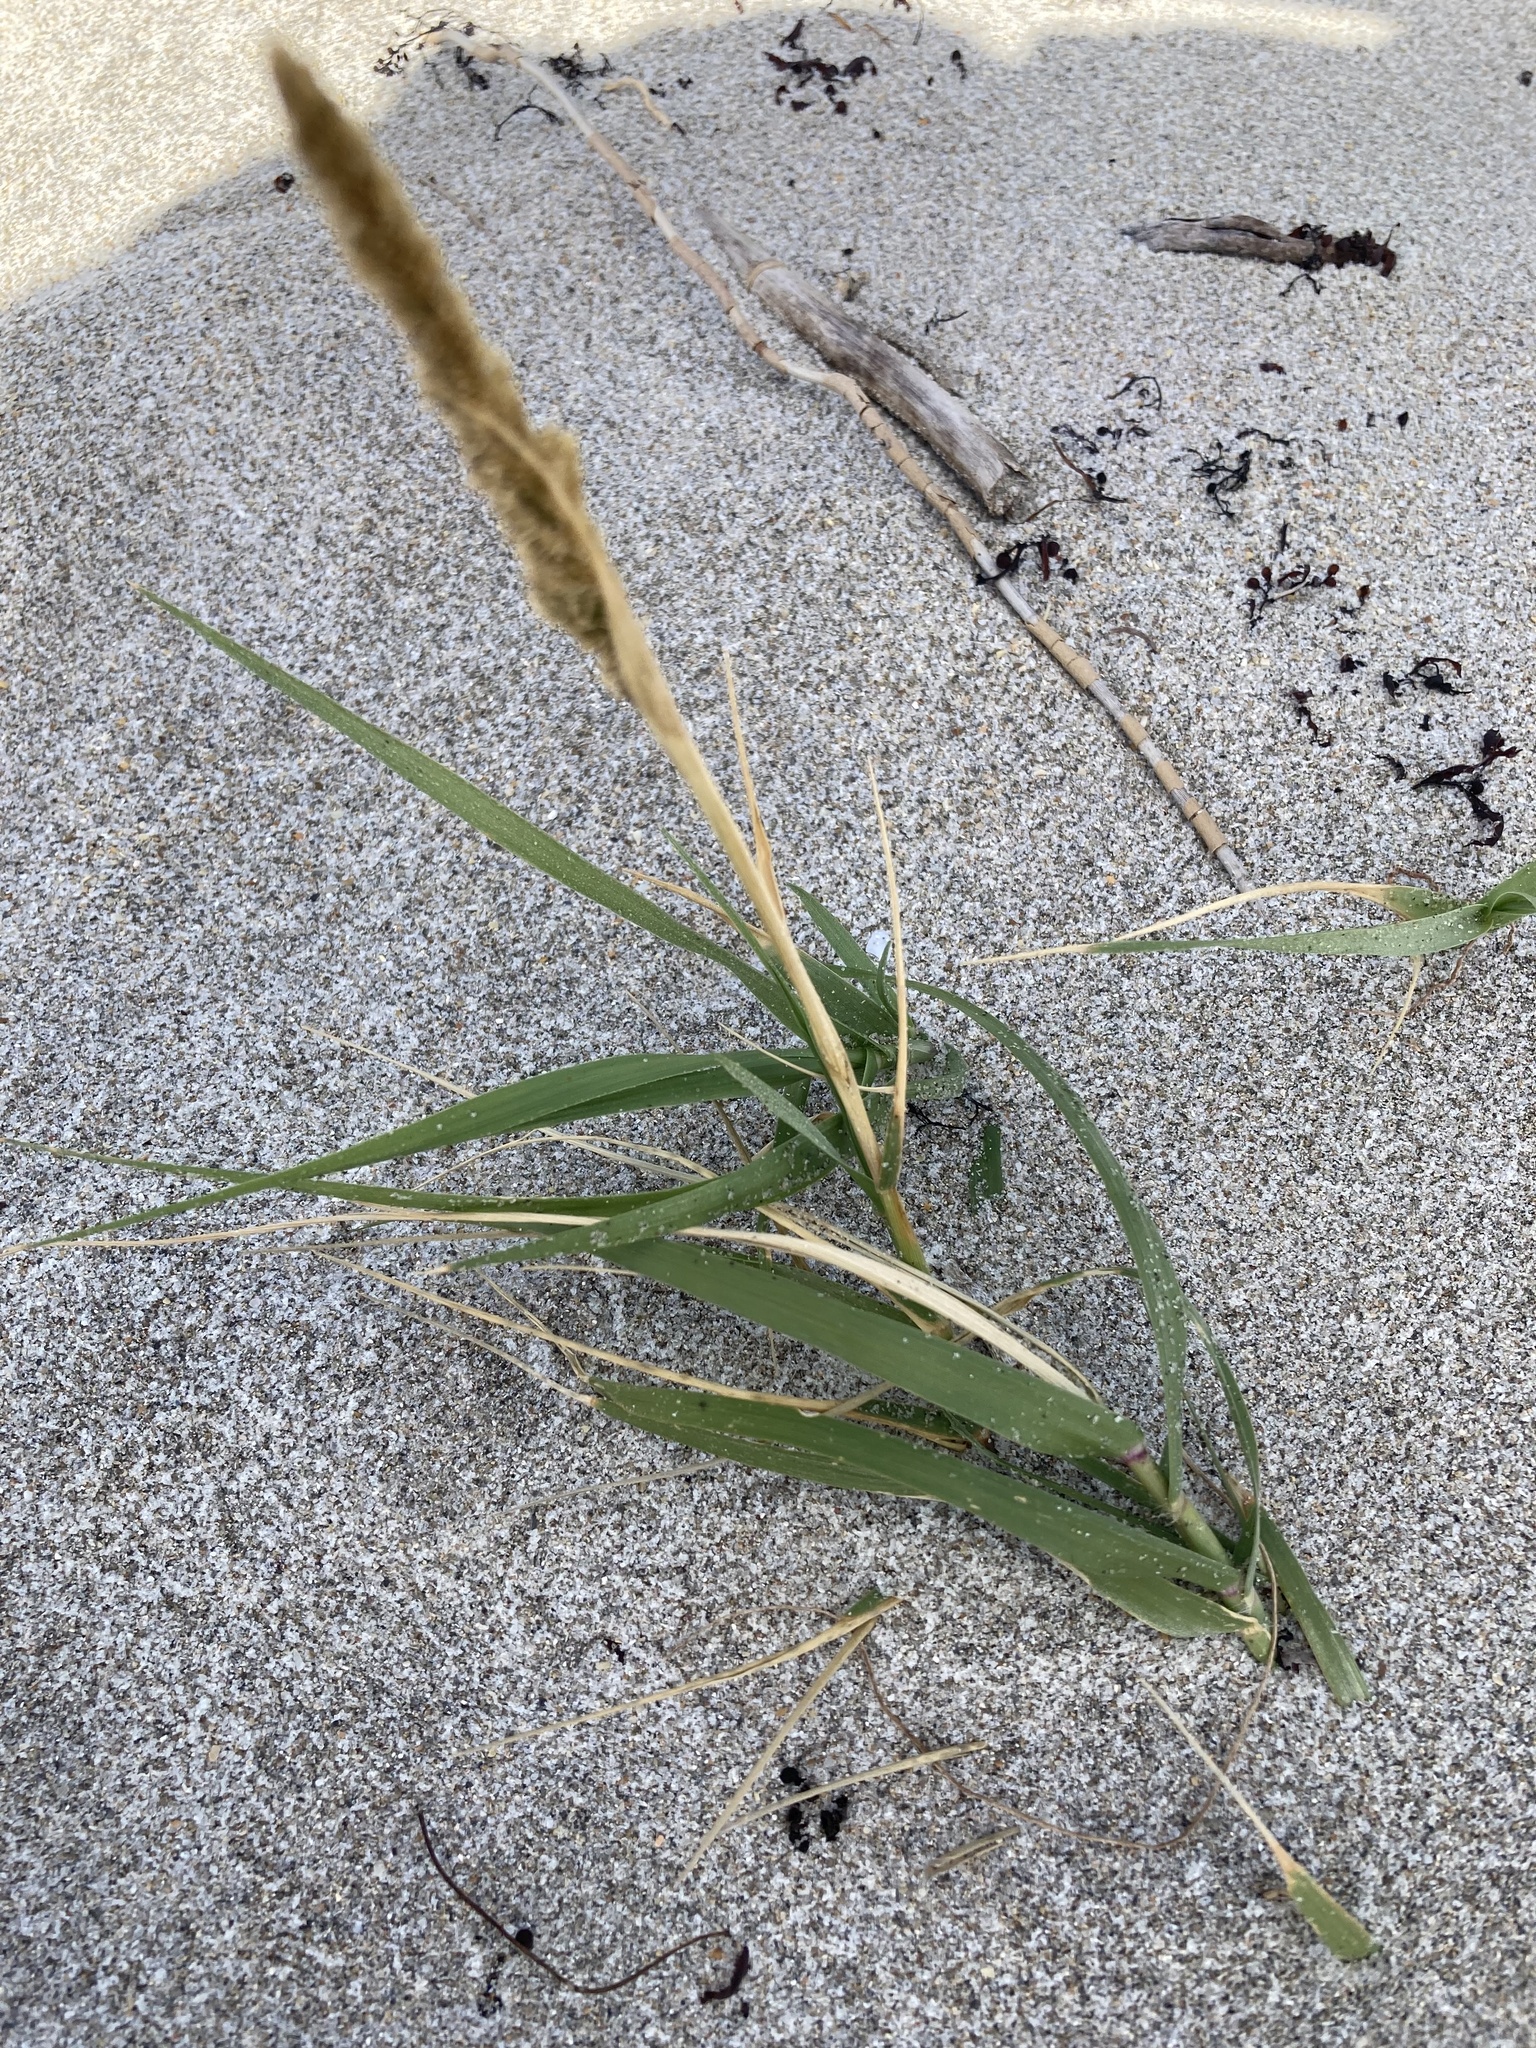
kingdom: Plantae
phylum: Tracheophyta
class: Liliopsida
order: Poales
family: Poaceae
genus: Sporobolus
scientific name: Sporobolus virginicus
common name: Beach dropseed
